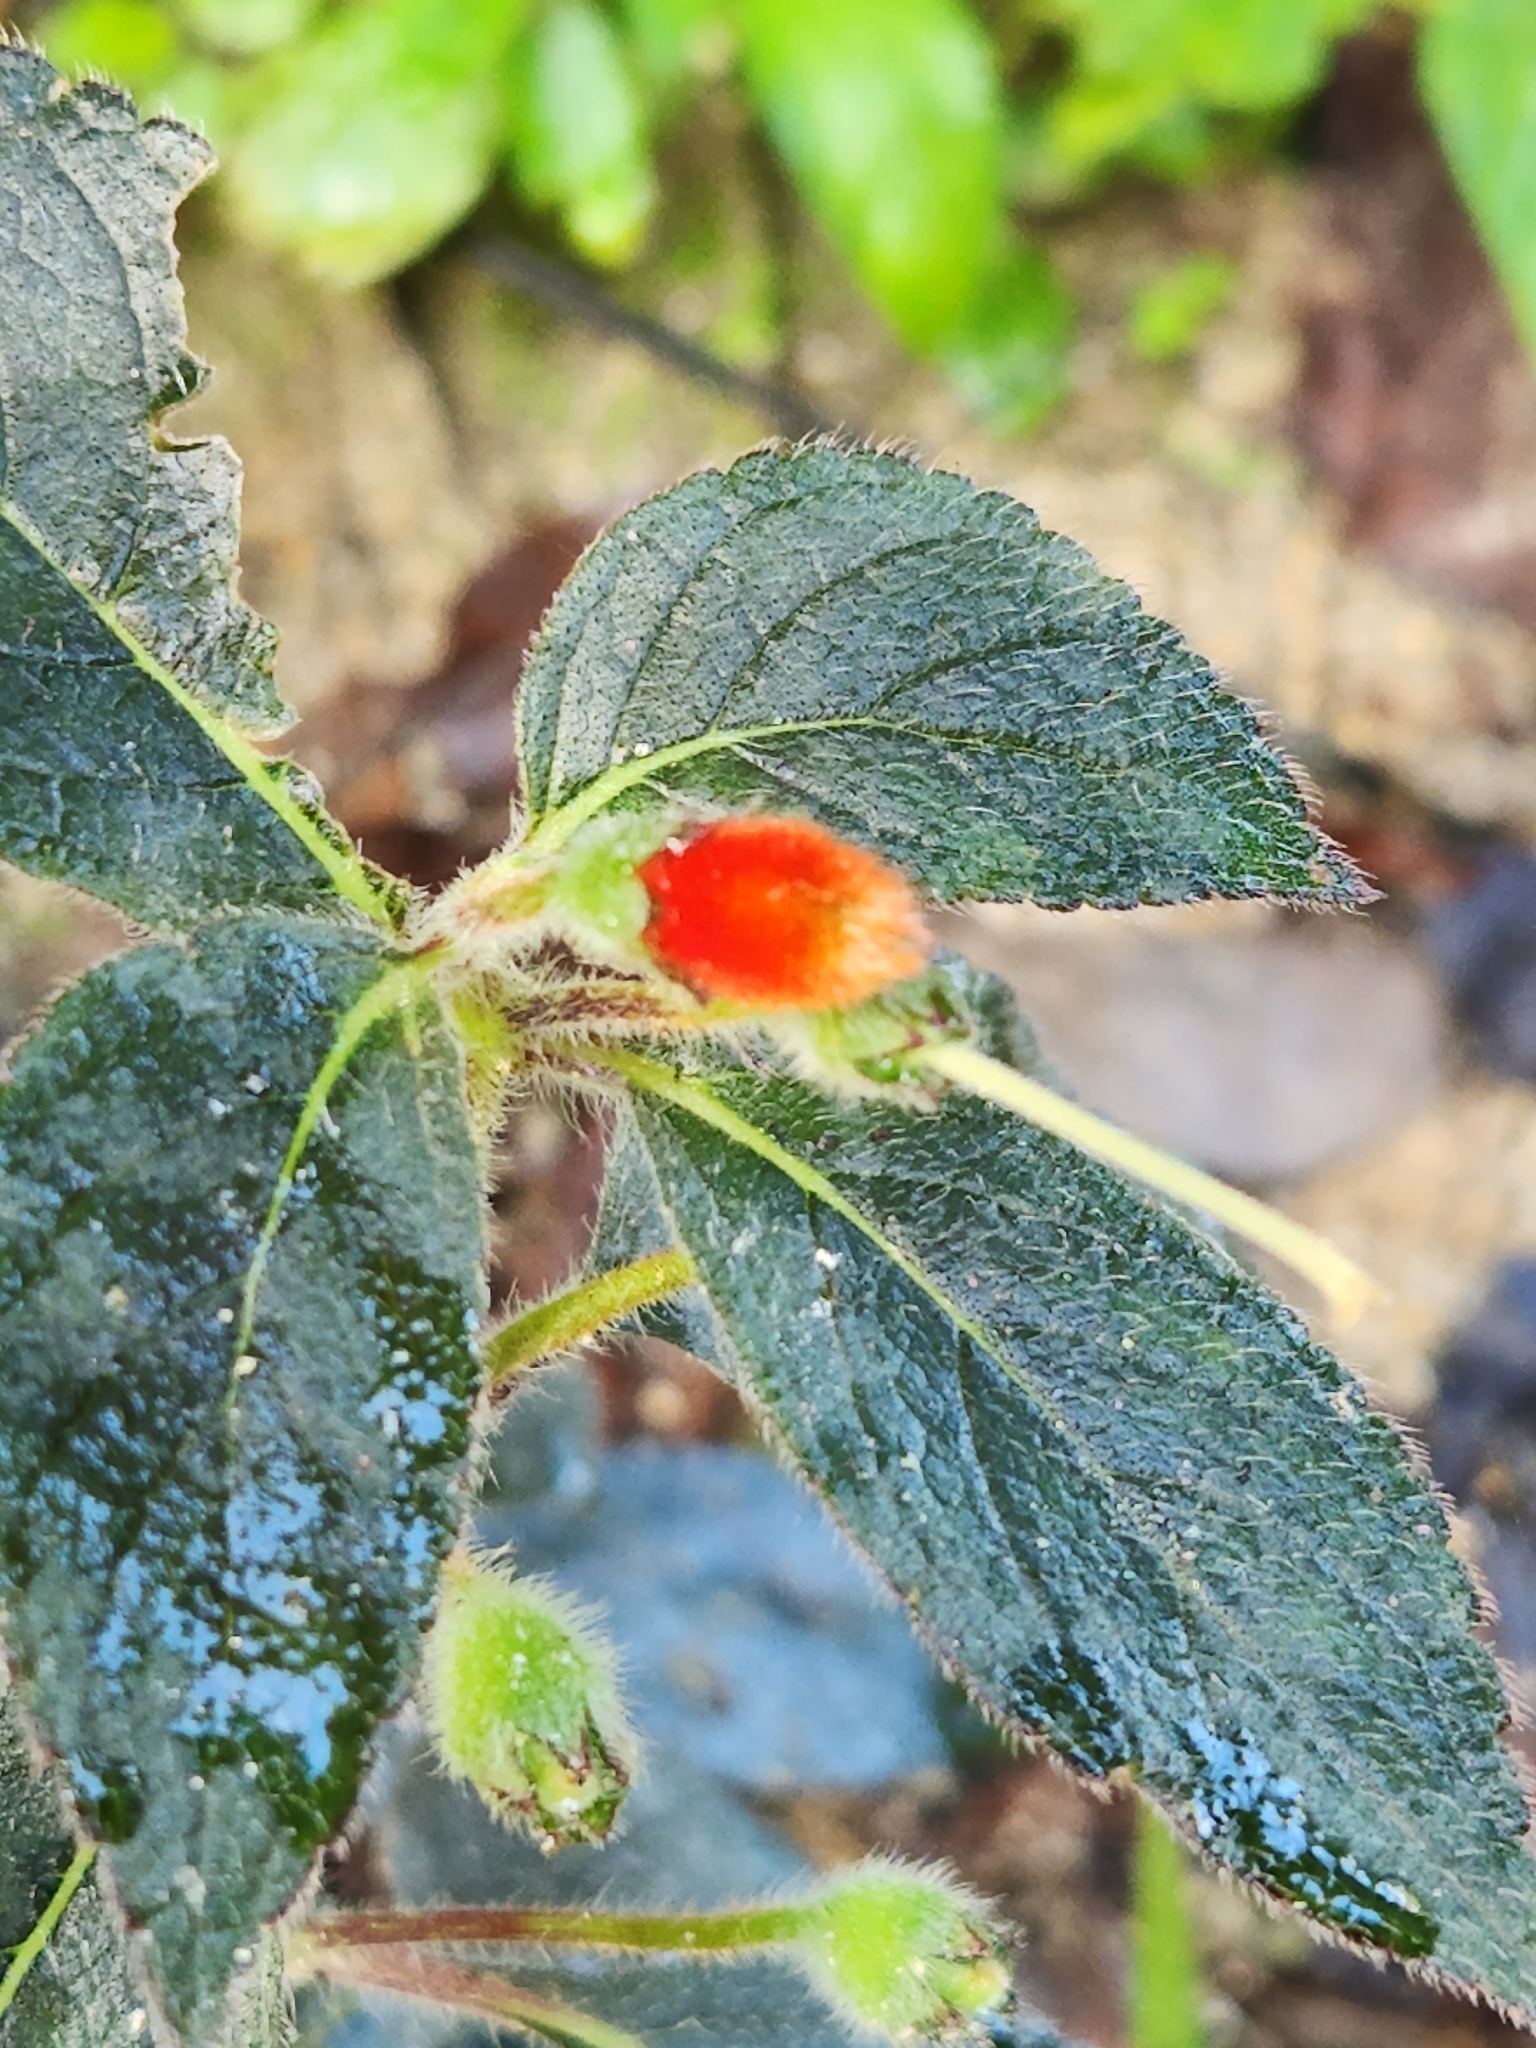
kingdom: Plantae
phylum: Tracheophyta
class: Magnoliopsida
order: Lamiales
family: Gesneriaceae
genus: Kohleria
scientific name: Kohleria tubiflora
